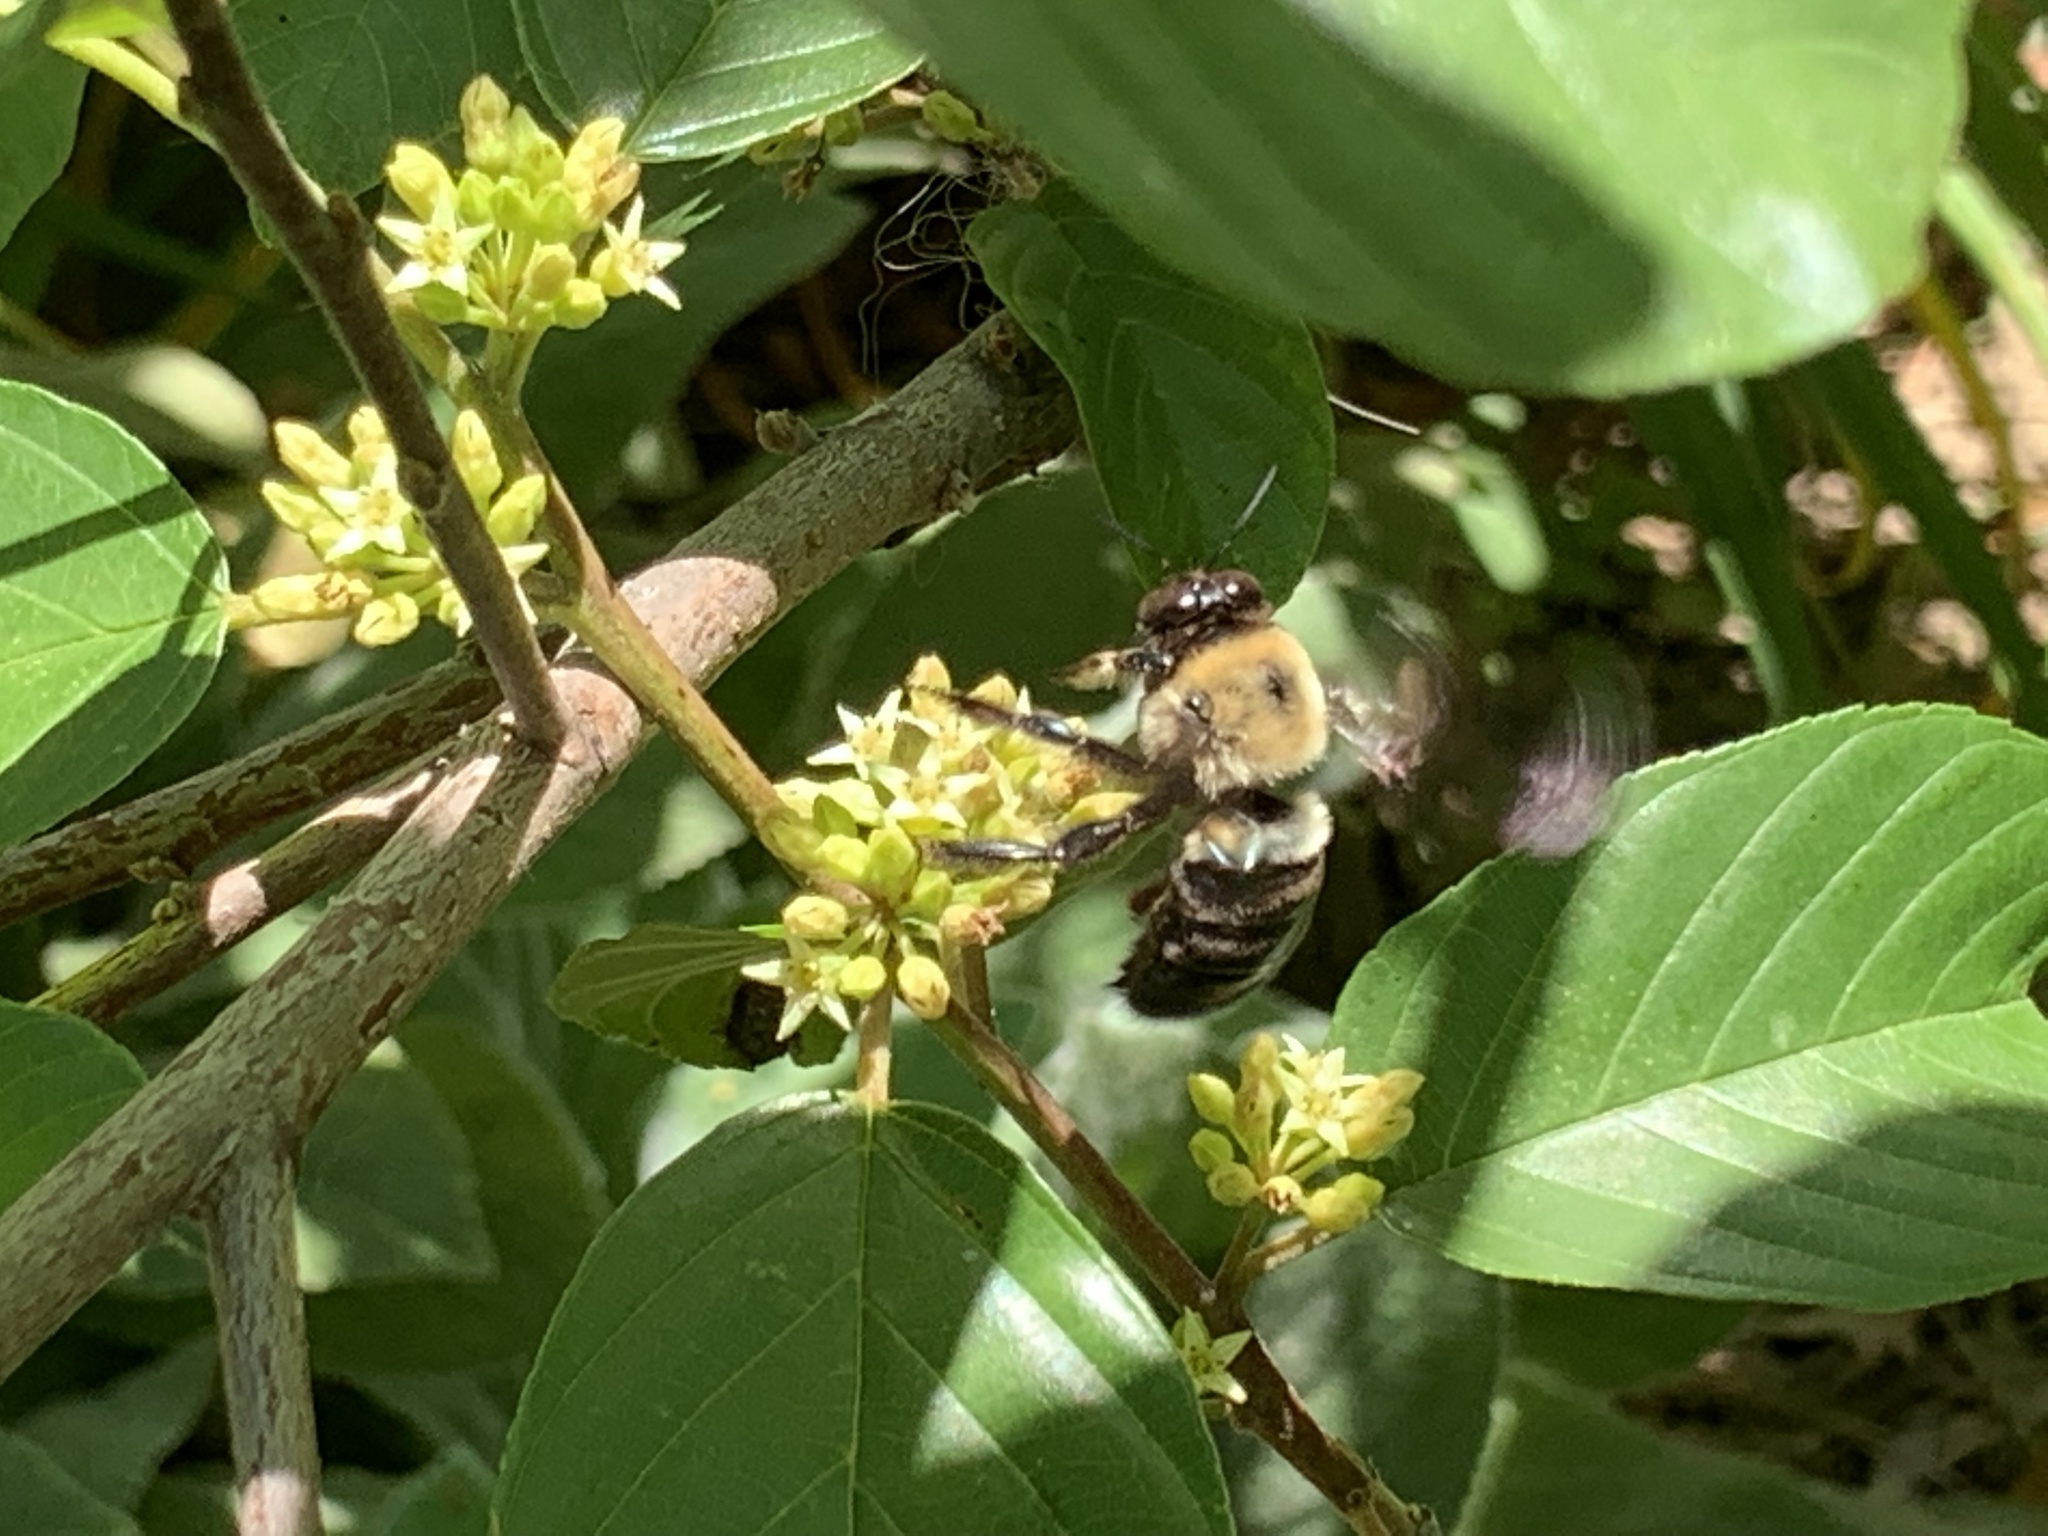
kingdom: Animalia
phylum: Arthropoda
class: Insecta
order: Hymenoptera
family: Apidae
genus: Xylocopa
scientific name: Xylocopa virginica
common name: Carpenter bee
